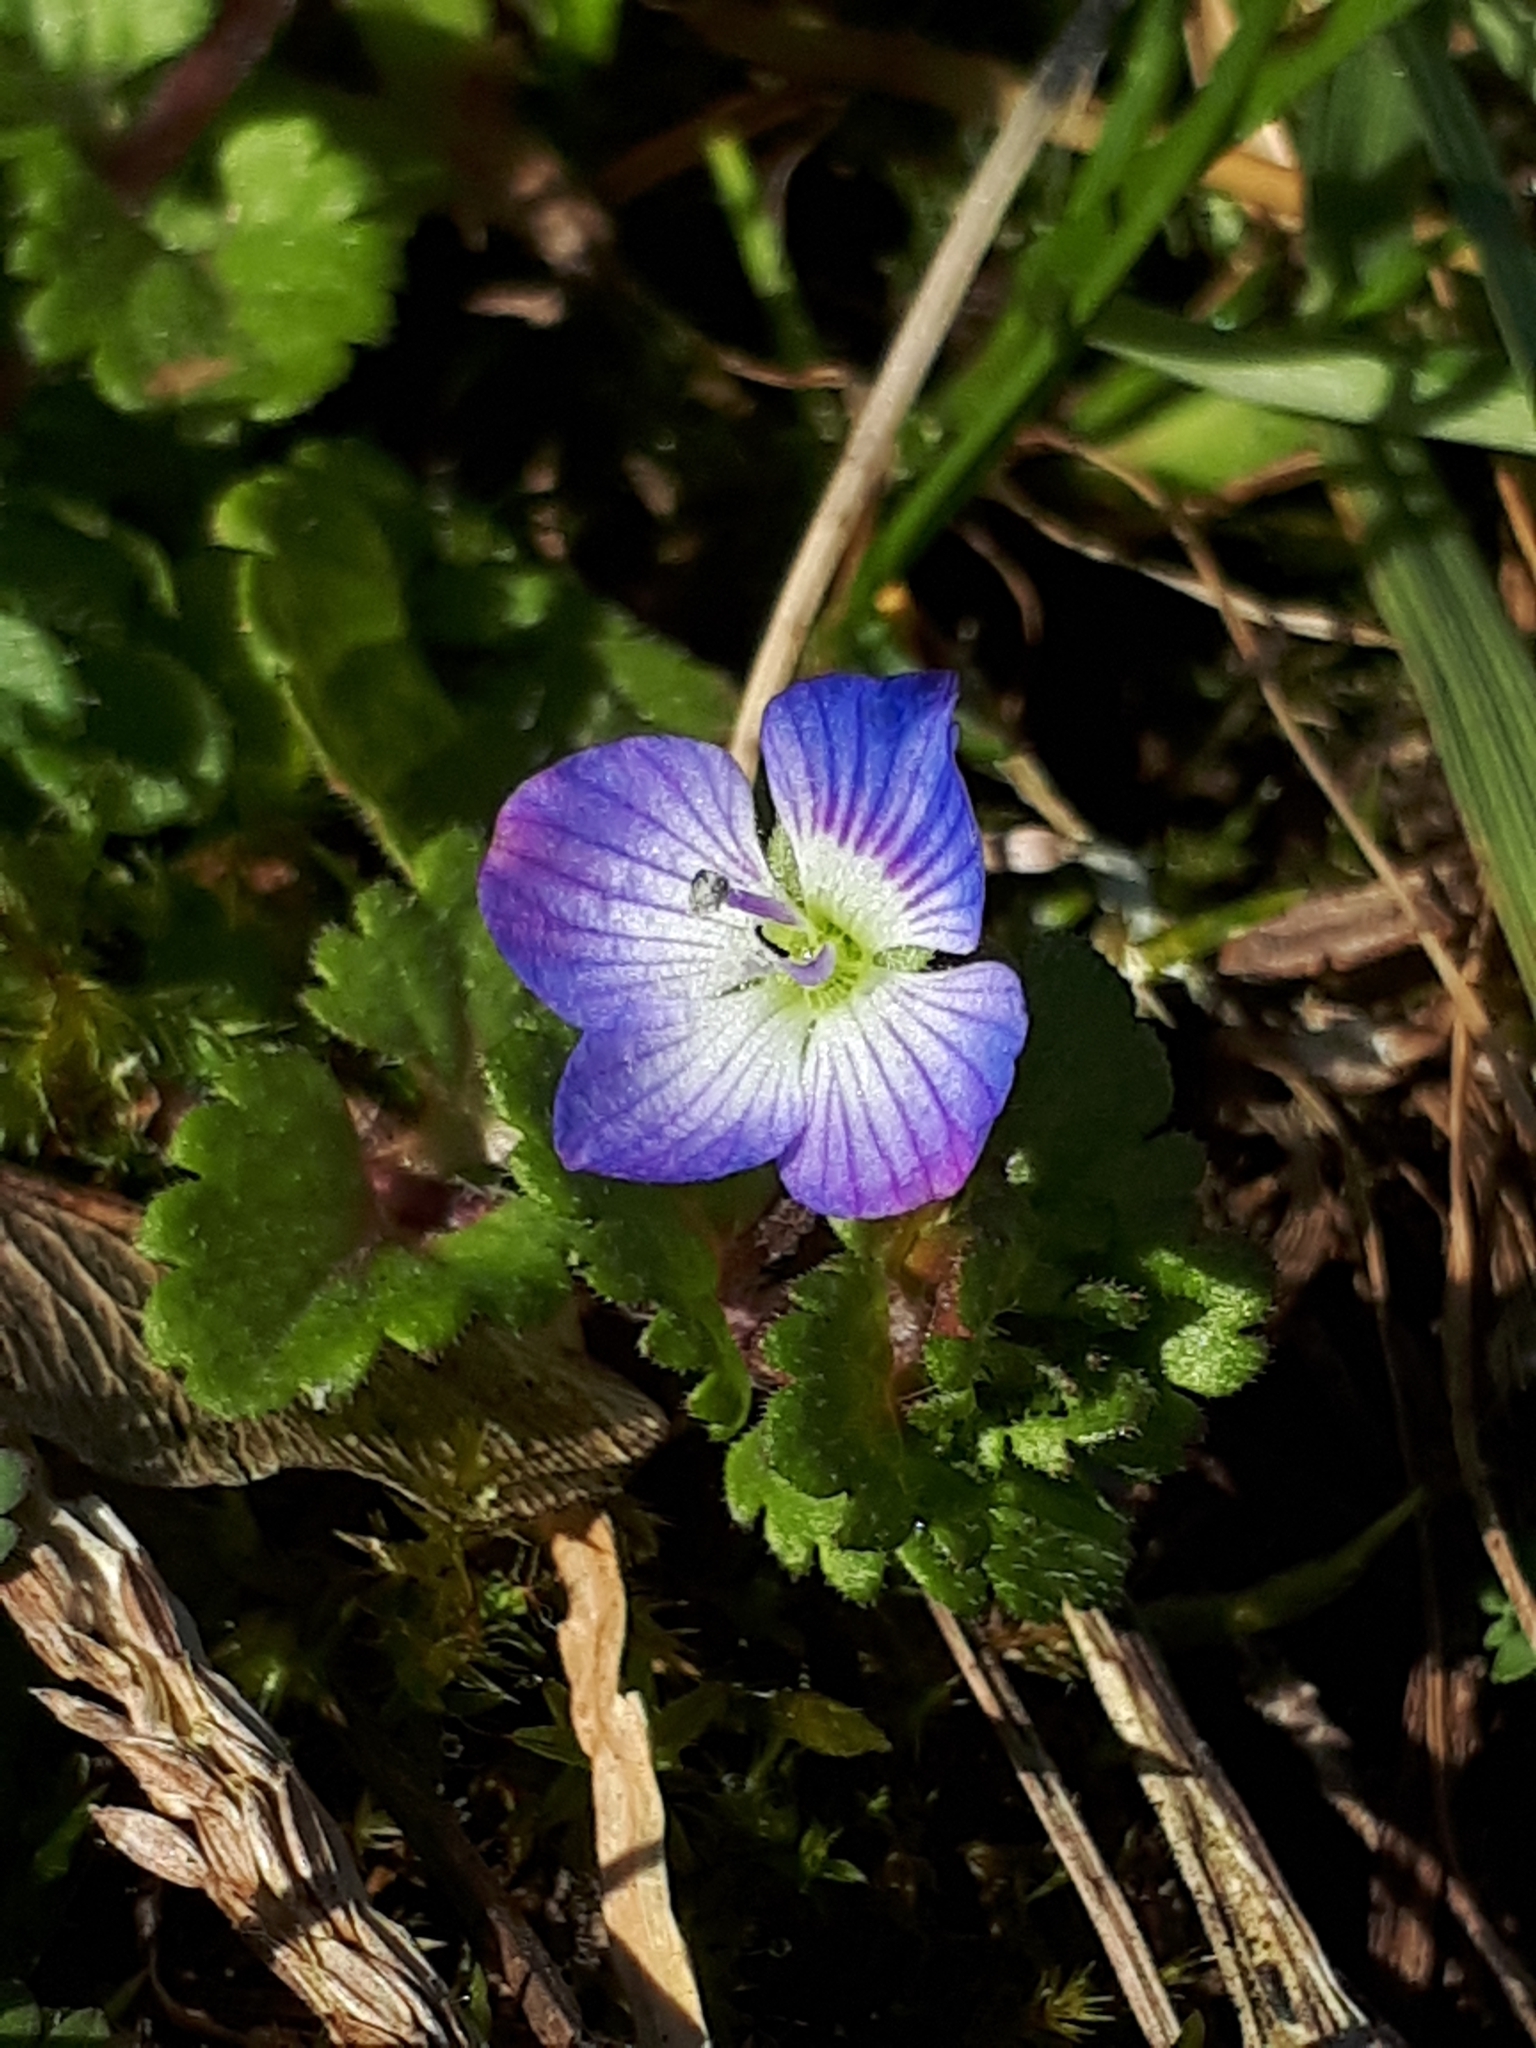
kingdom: Plantae
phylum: Tracheophyta
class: Magnoliopsida
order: Lamiales
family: Plantaginaceae
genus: Veronica
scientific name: Veronica persica
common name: Common field-speedwell
